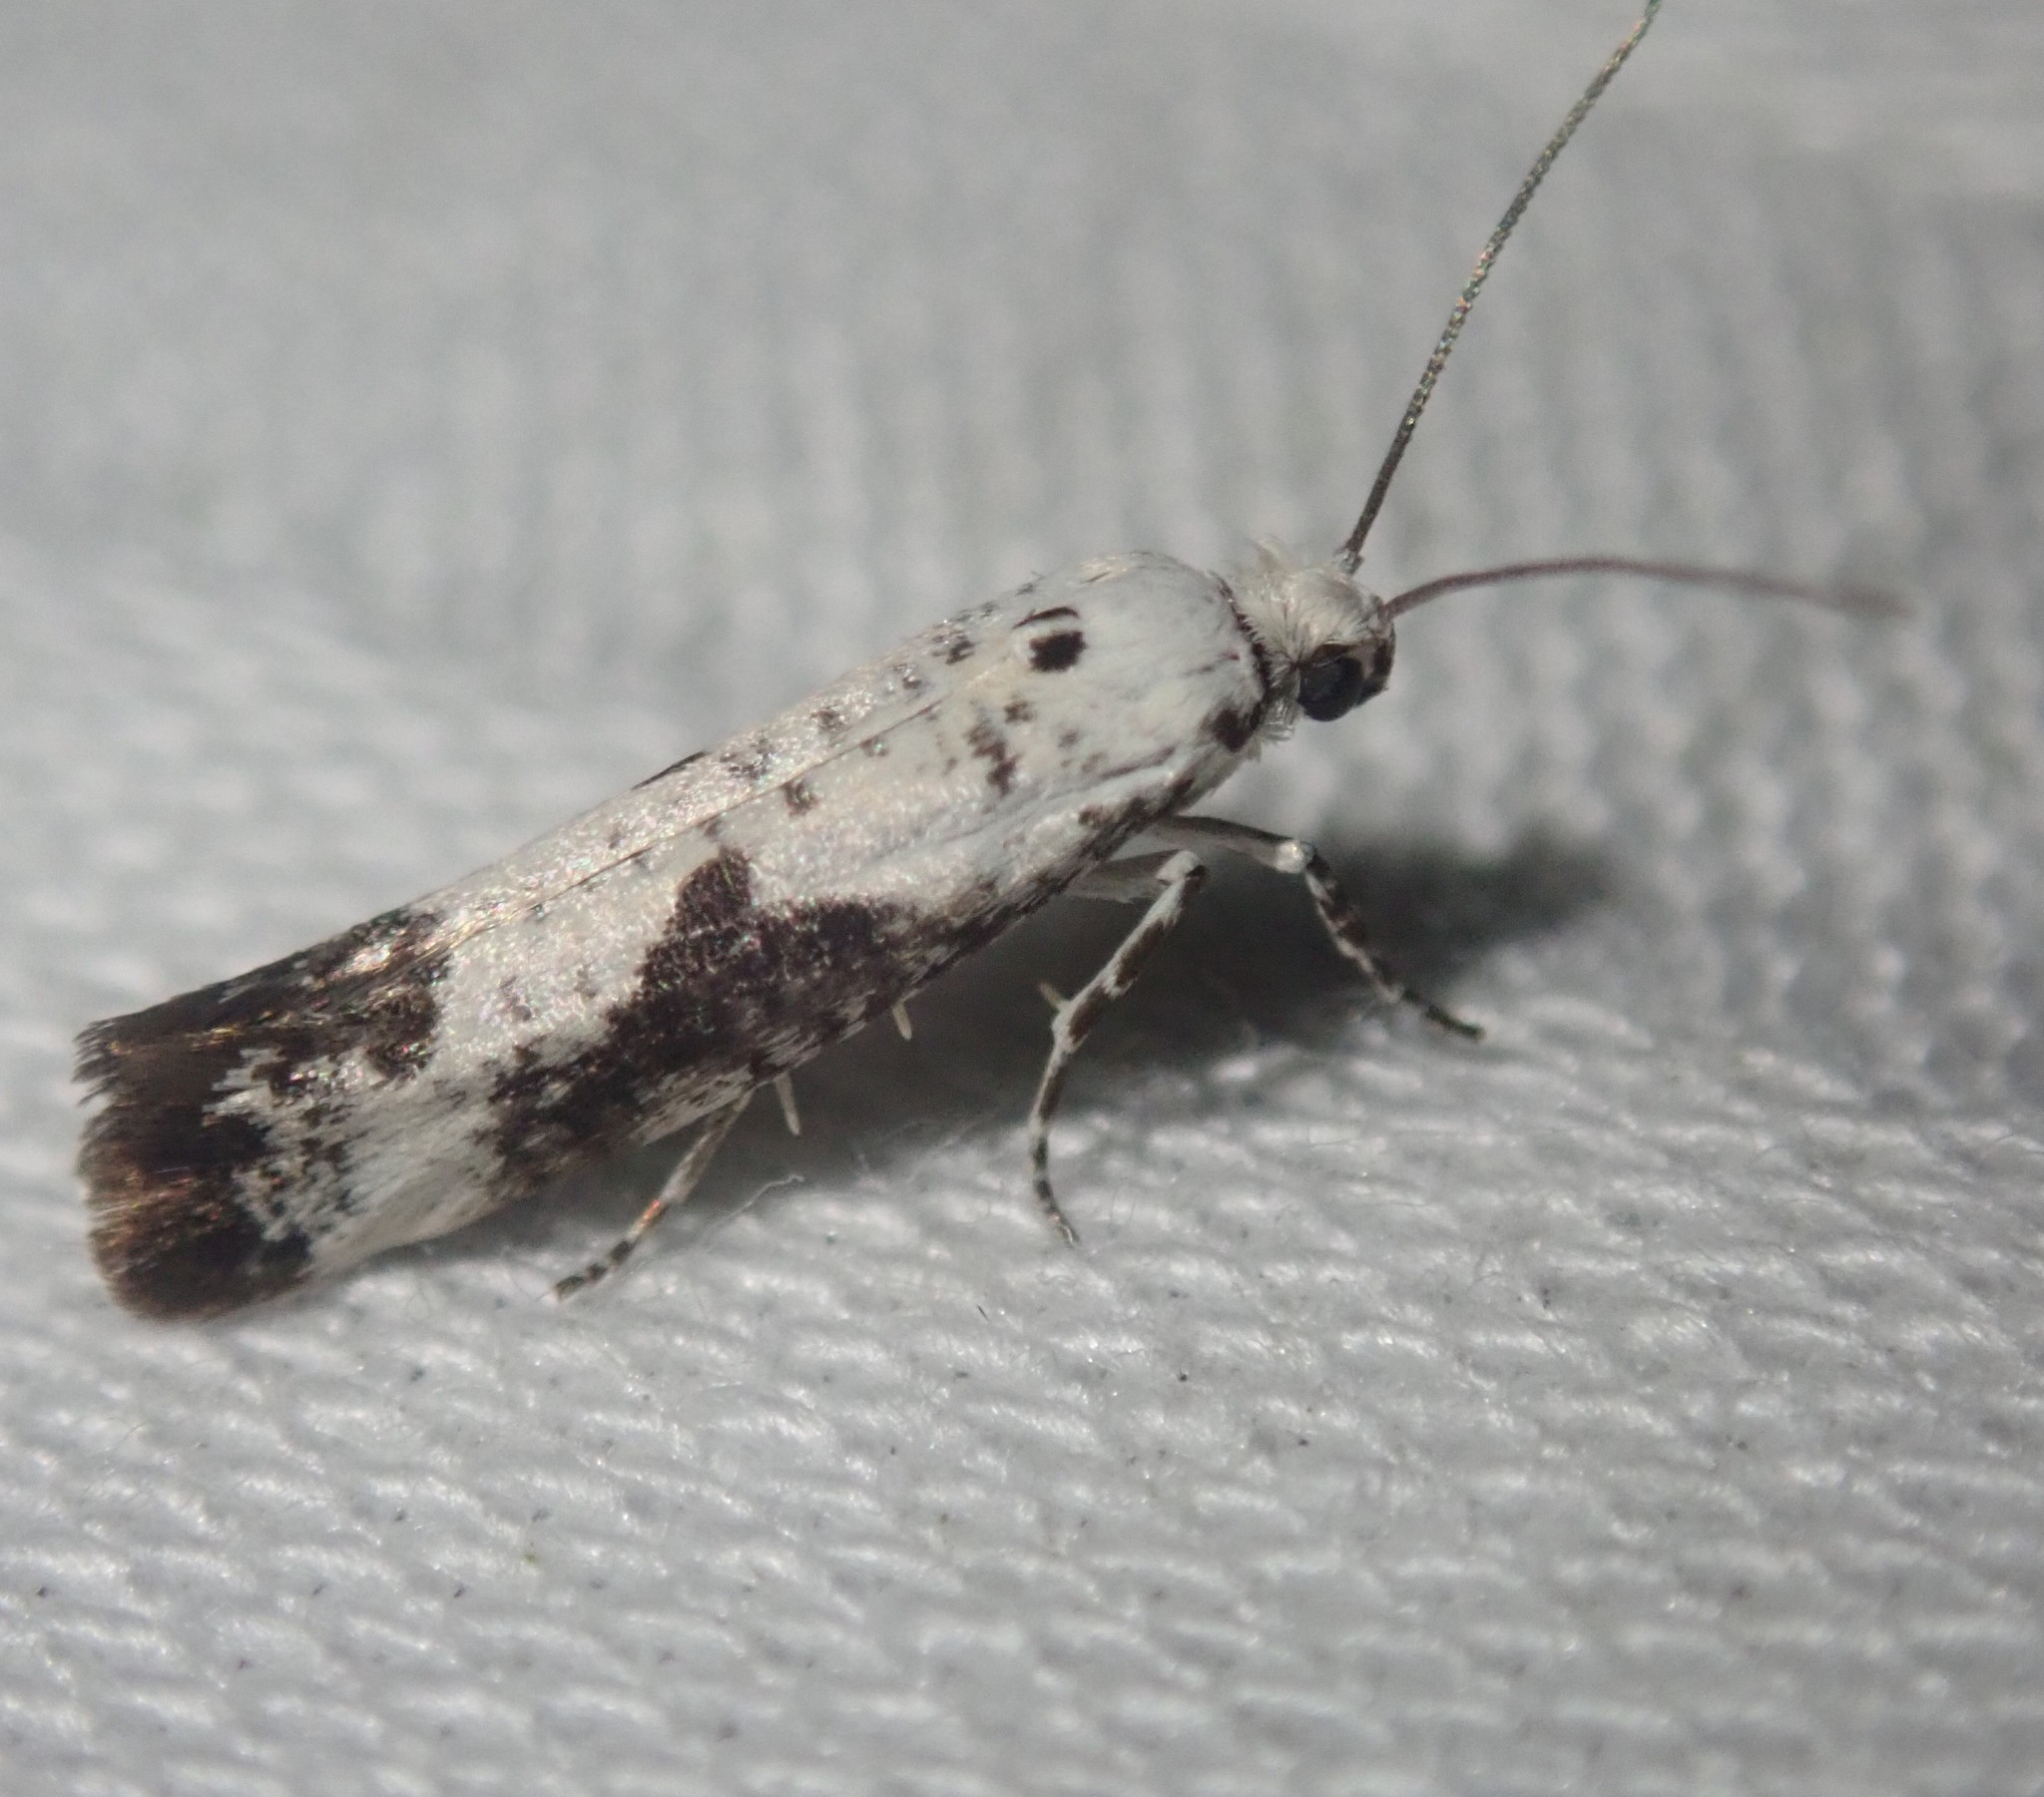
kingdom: Animalia
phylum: Arthropoda
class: Insecta
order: Lepidoptera
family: Praydidae
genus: Prays
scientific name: Prays fraxinella
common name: Ash bud moth
